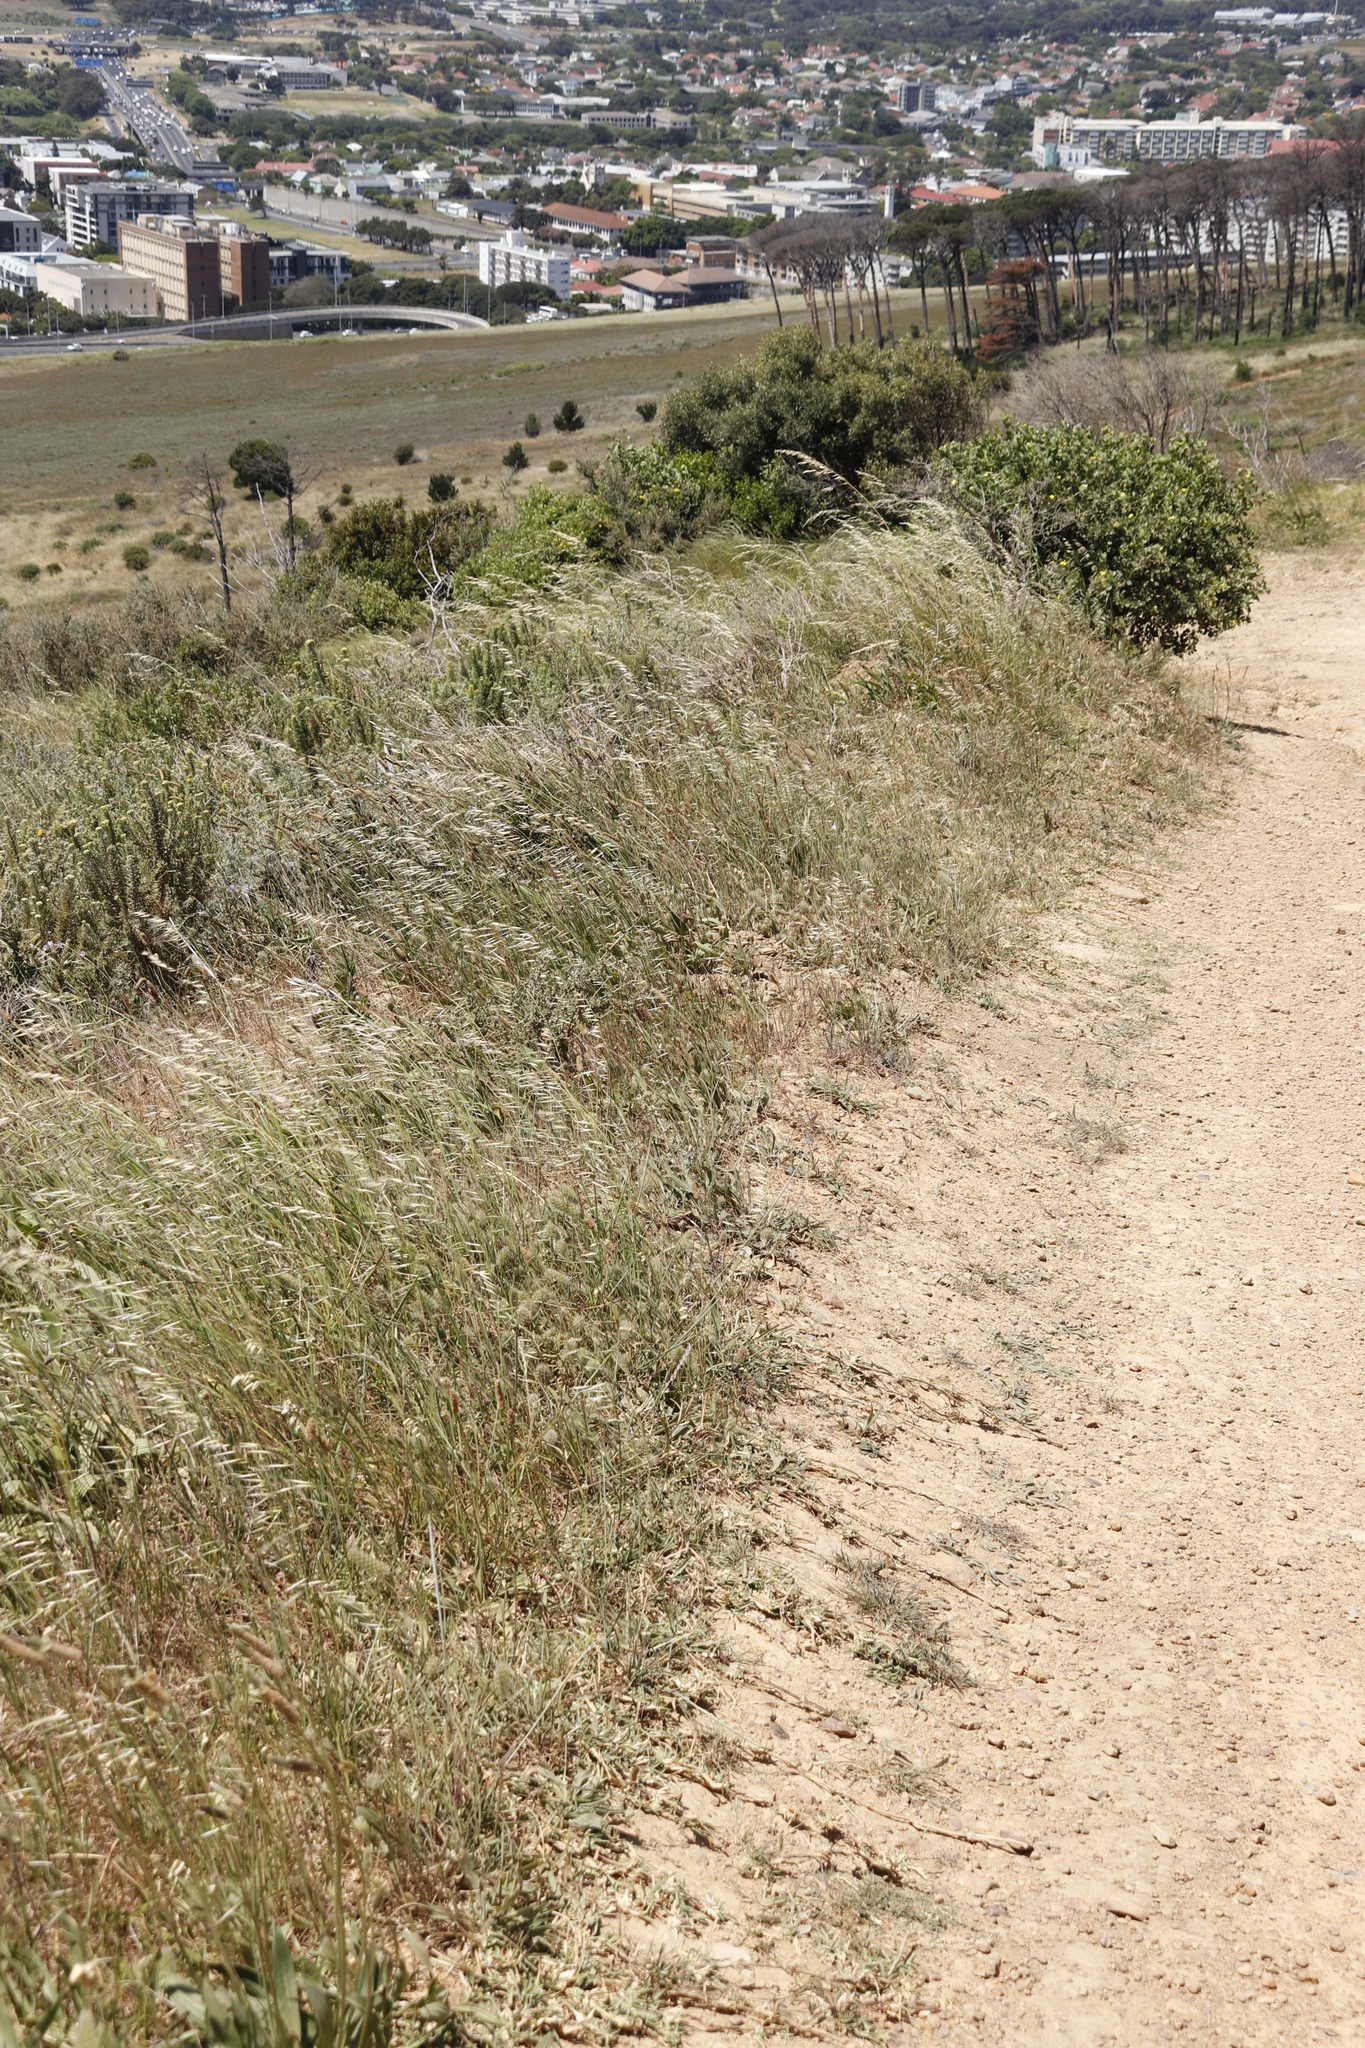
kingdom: Plantae
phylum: Tracheophyta
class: Liliopsida
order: Poales
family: Poaceae
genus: Avena
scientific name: Avena fatua
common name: Wild oat
